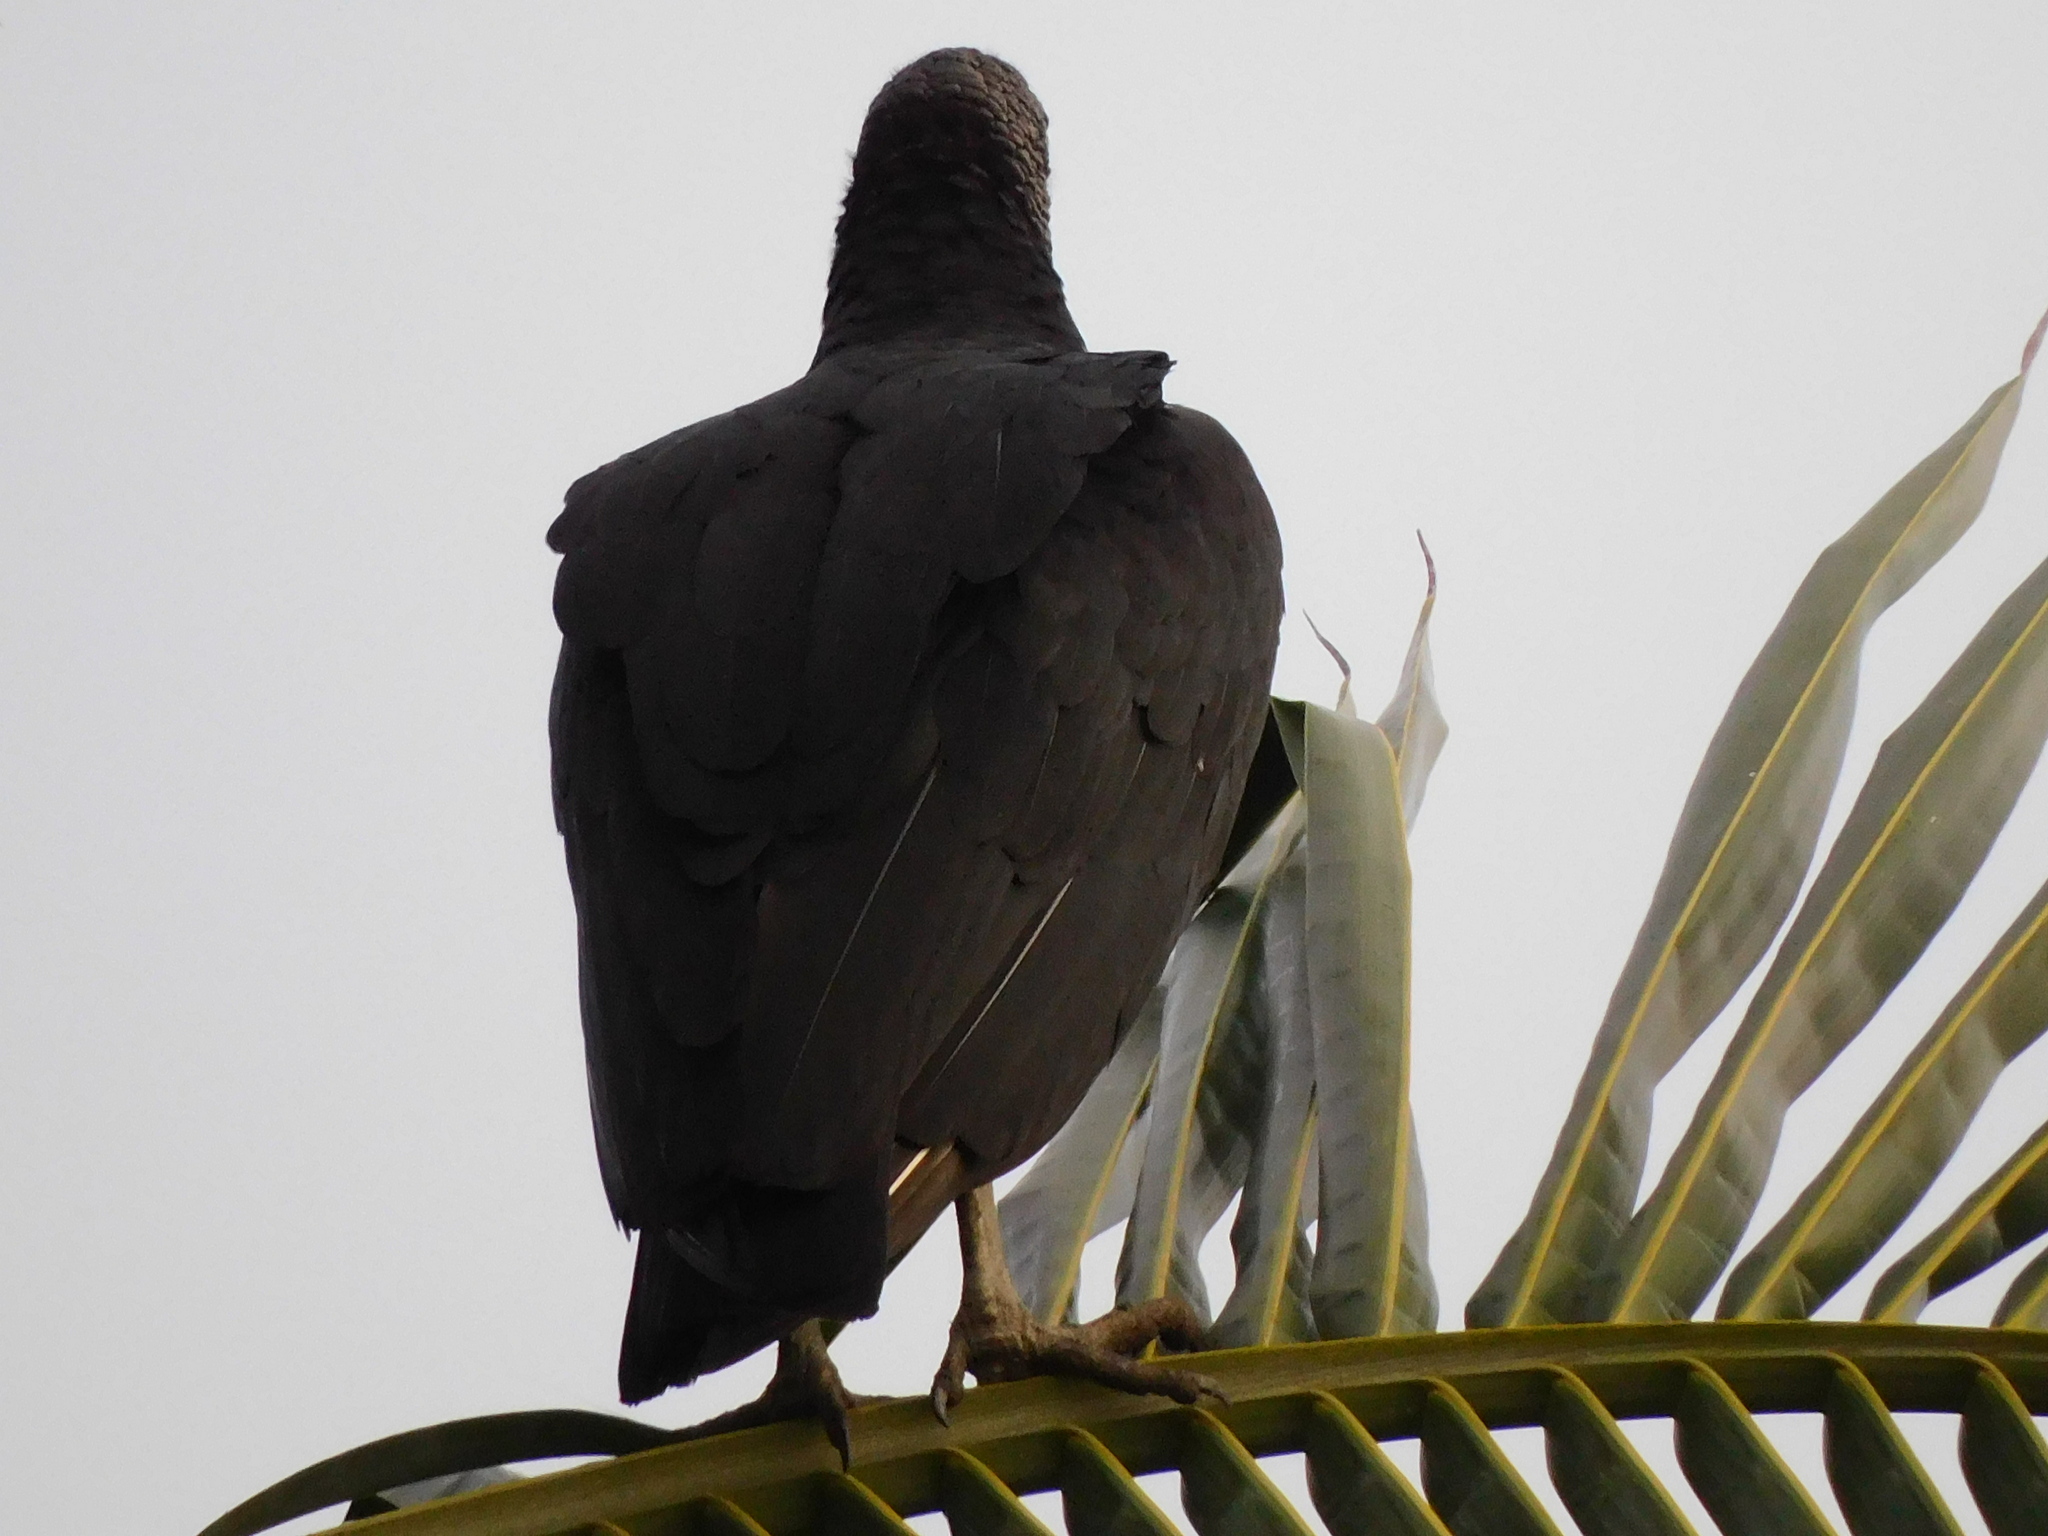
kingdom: Animalia
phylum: Chordata
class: Aves
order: Accipitriformes
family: Cathartidae
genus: Coragyps
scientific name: Coragyps atratus
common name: Black vulture
